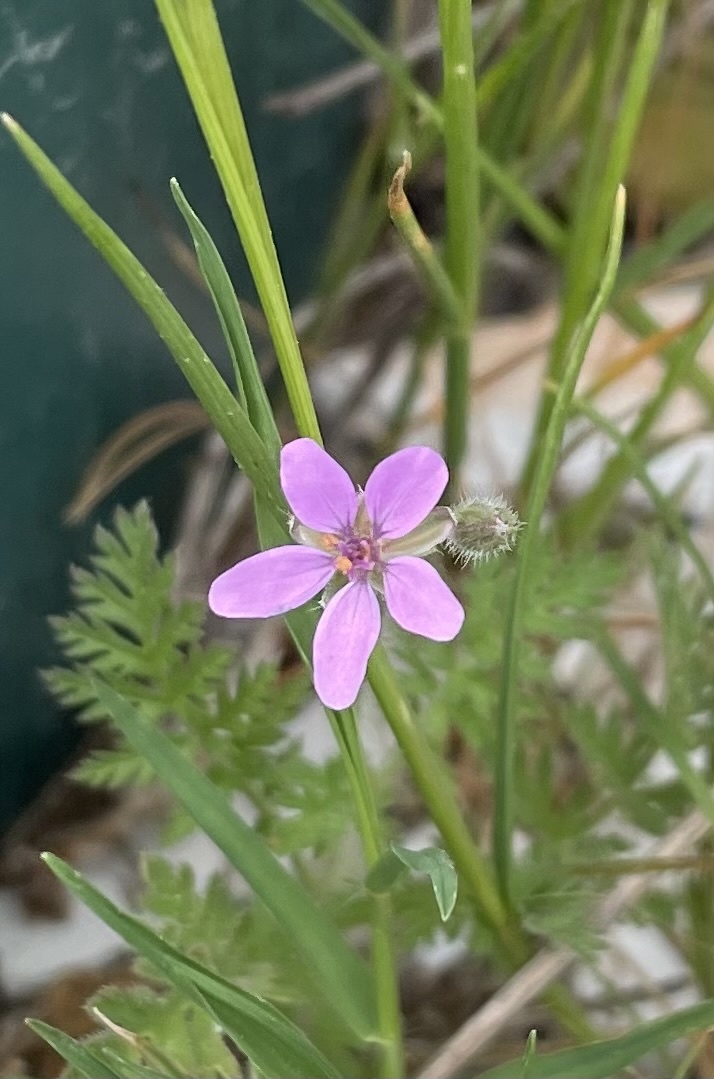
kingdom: Plantae
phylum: Tracheophyta
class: Magnoliopsida
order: Geraniales
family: Geraniaceae
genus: Erodium
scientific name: Erodium cicutarium
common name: Common stork's-bill
